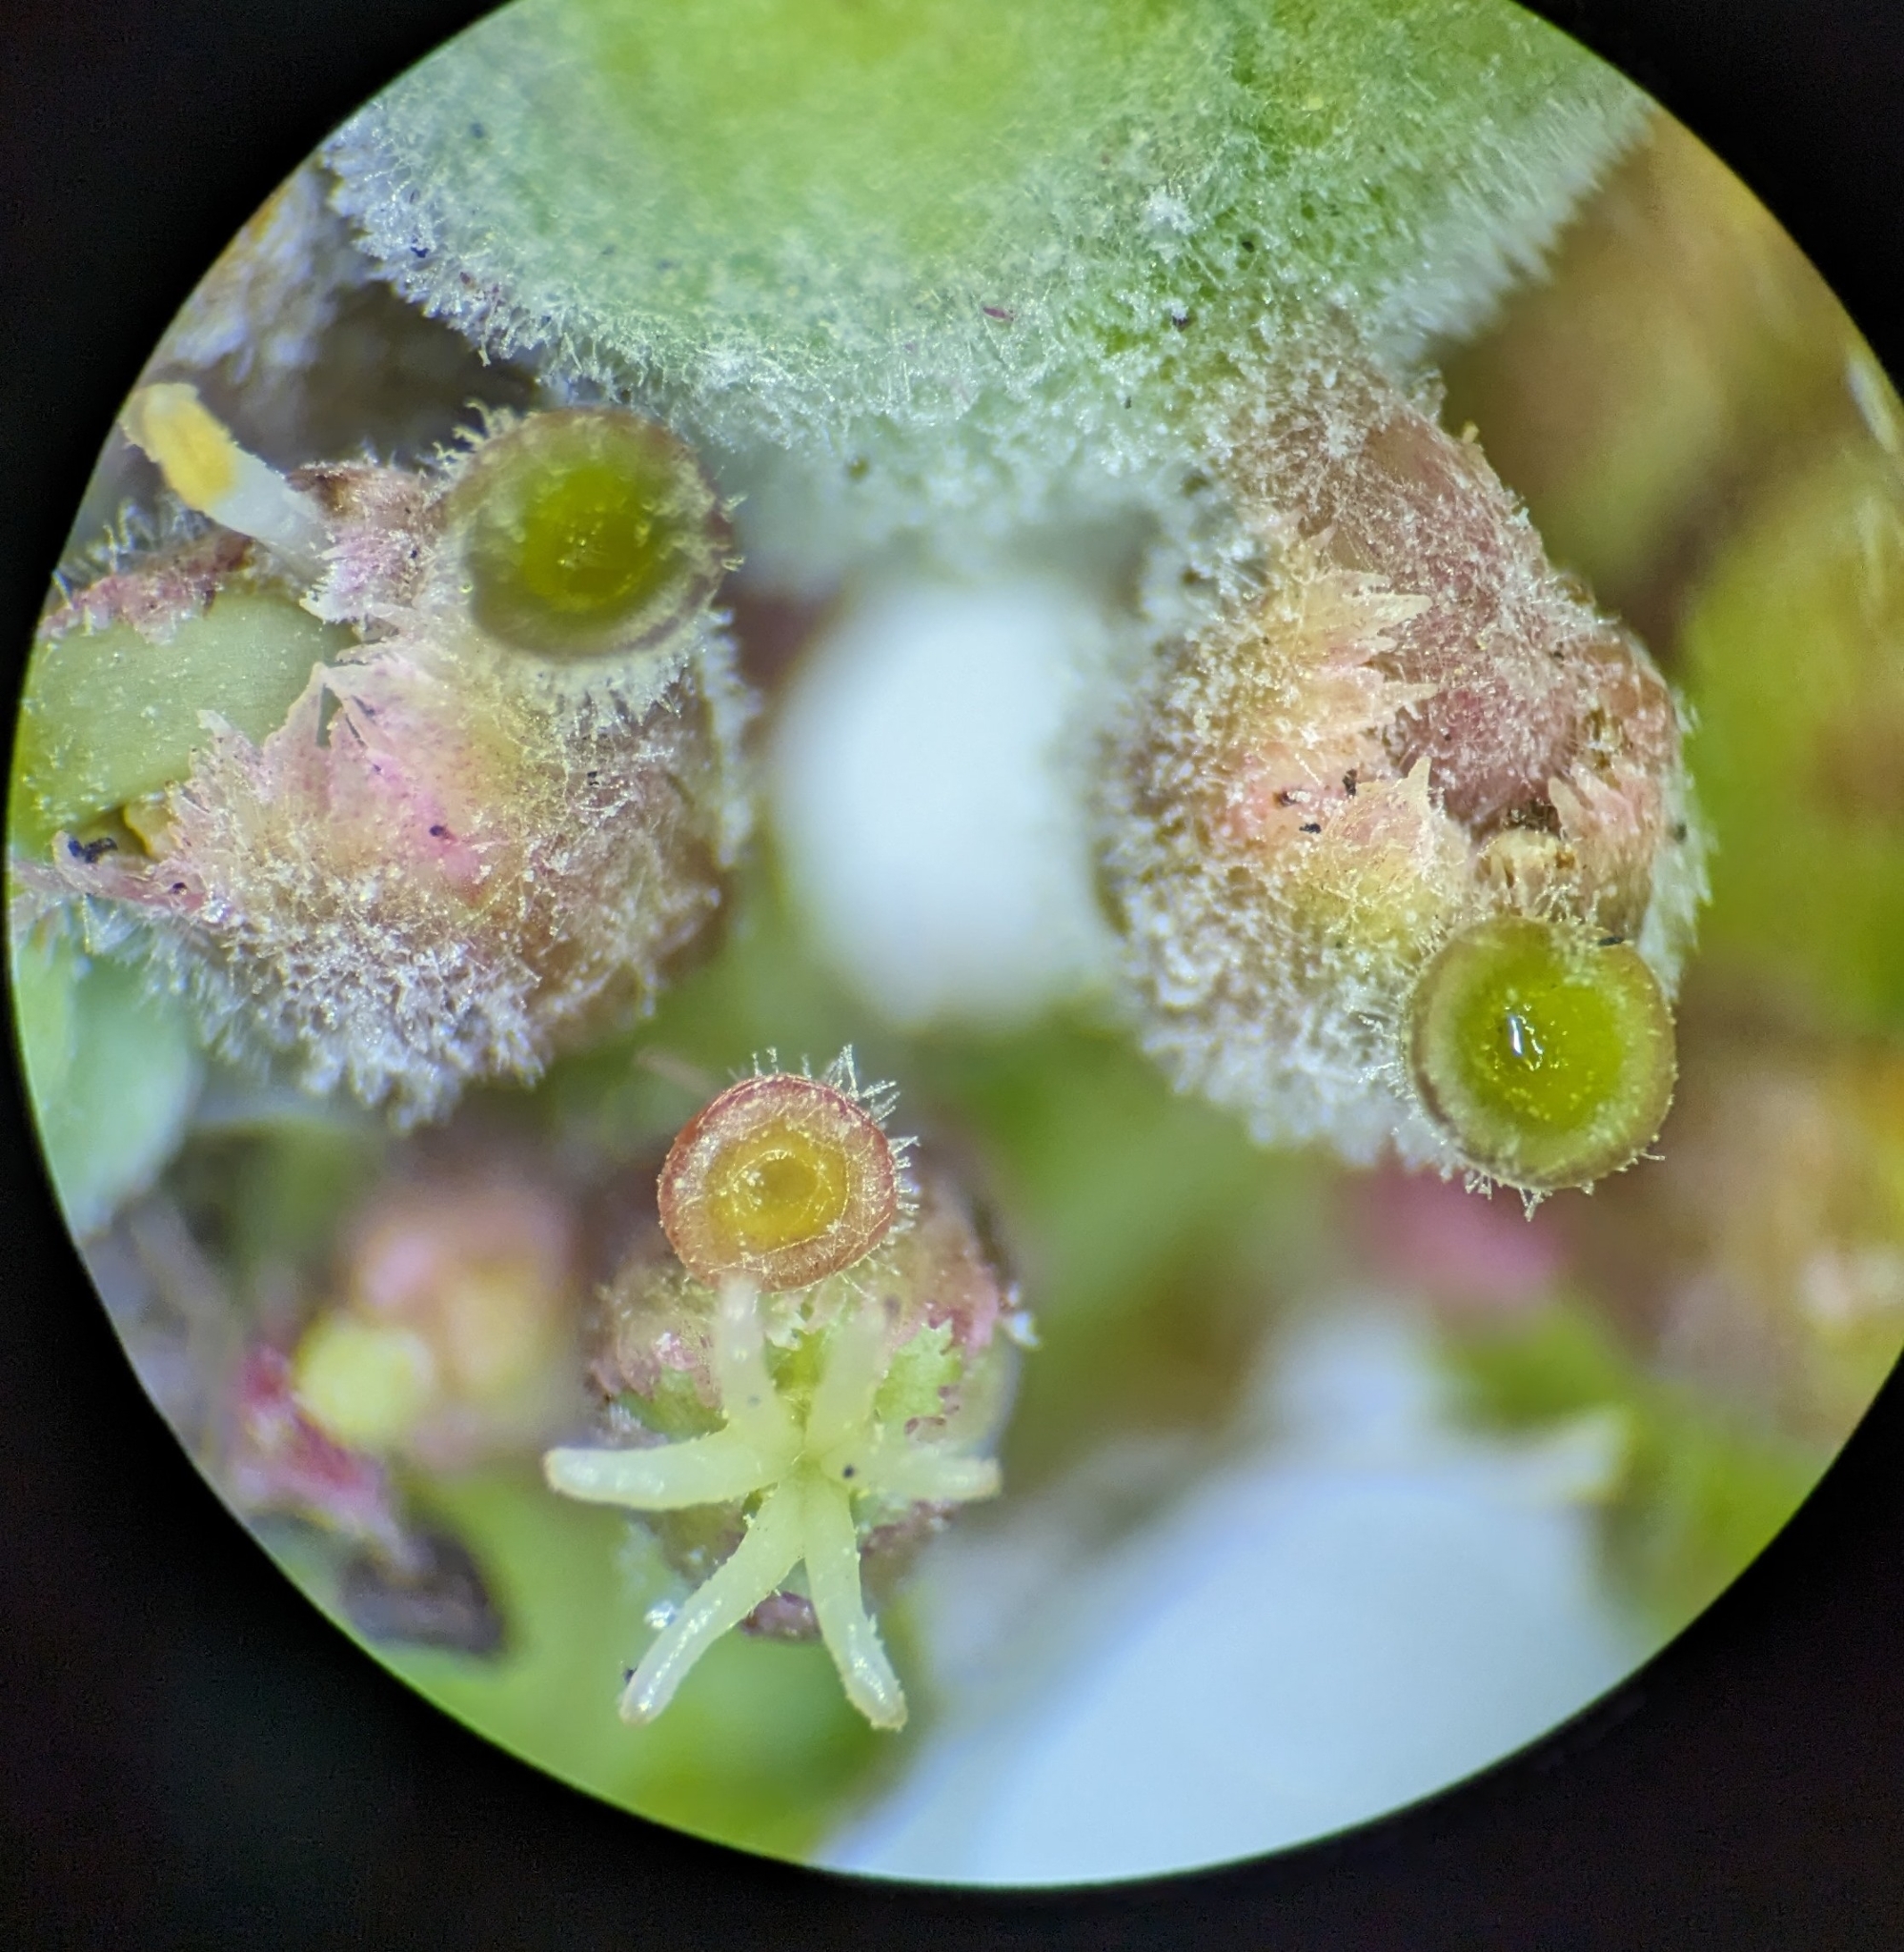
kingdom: Plantae
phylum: Tracheophyta
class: Magnoliopsida
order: Malpighiales
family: Euphorbiaceae
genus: Euphorbia
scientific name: Euphorbia heterophylla
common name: Mexican fireplant
